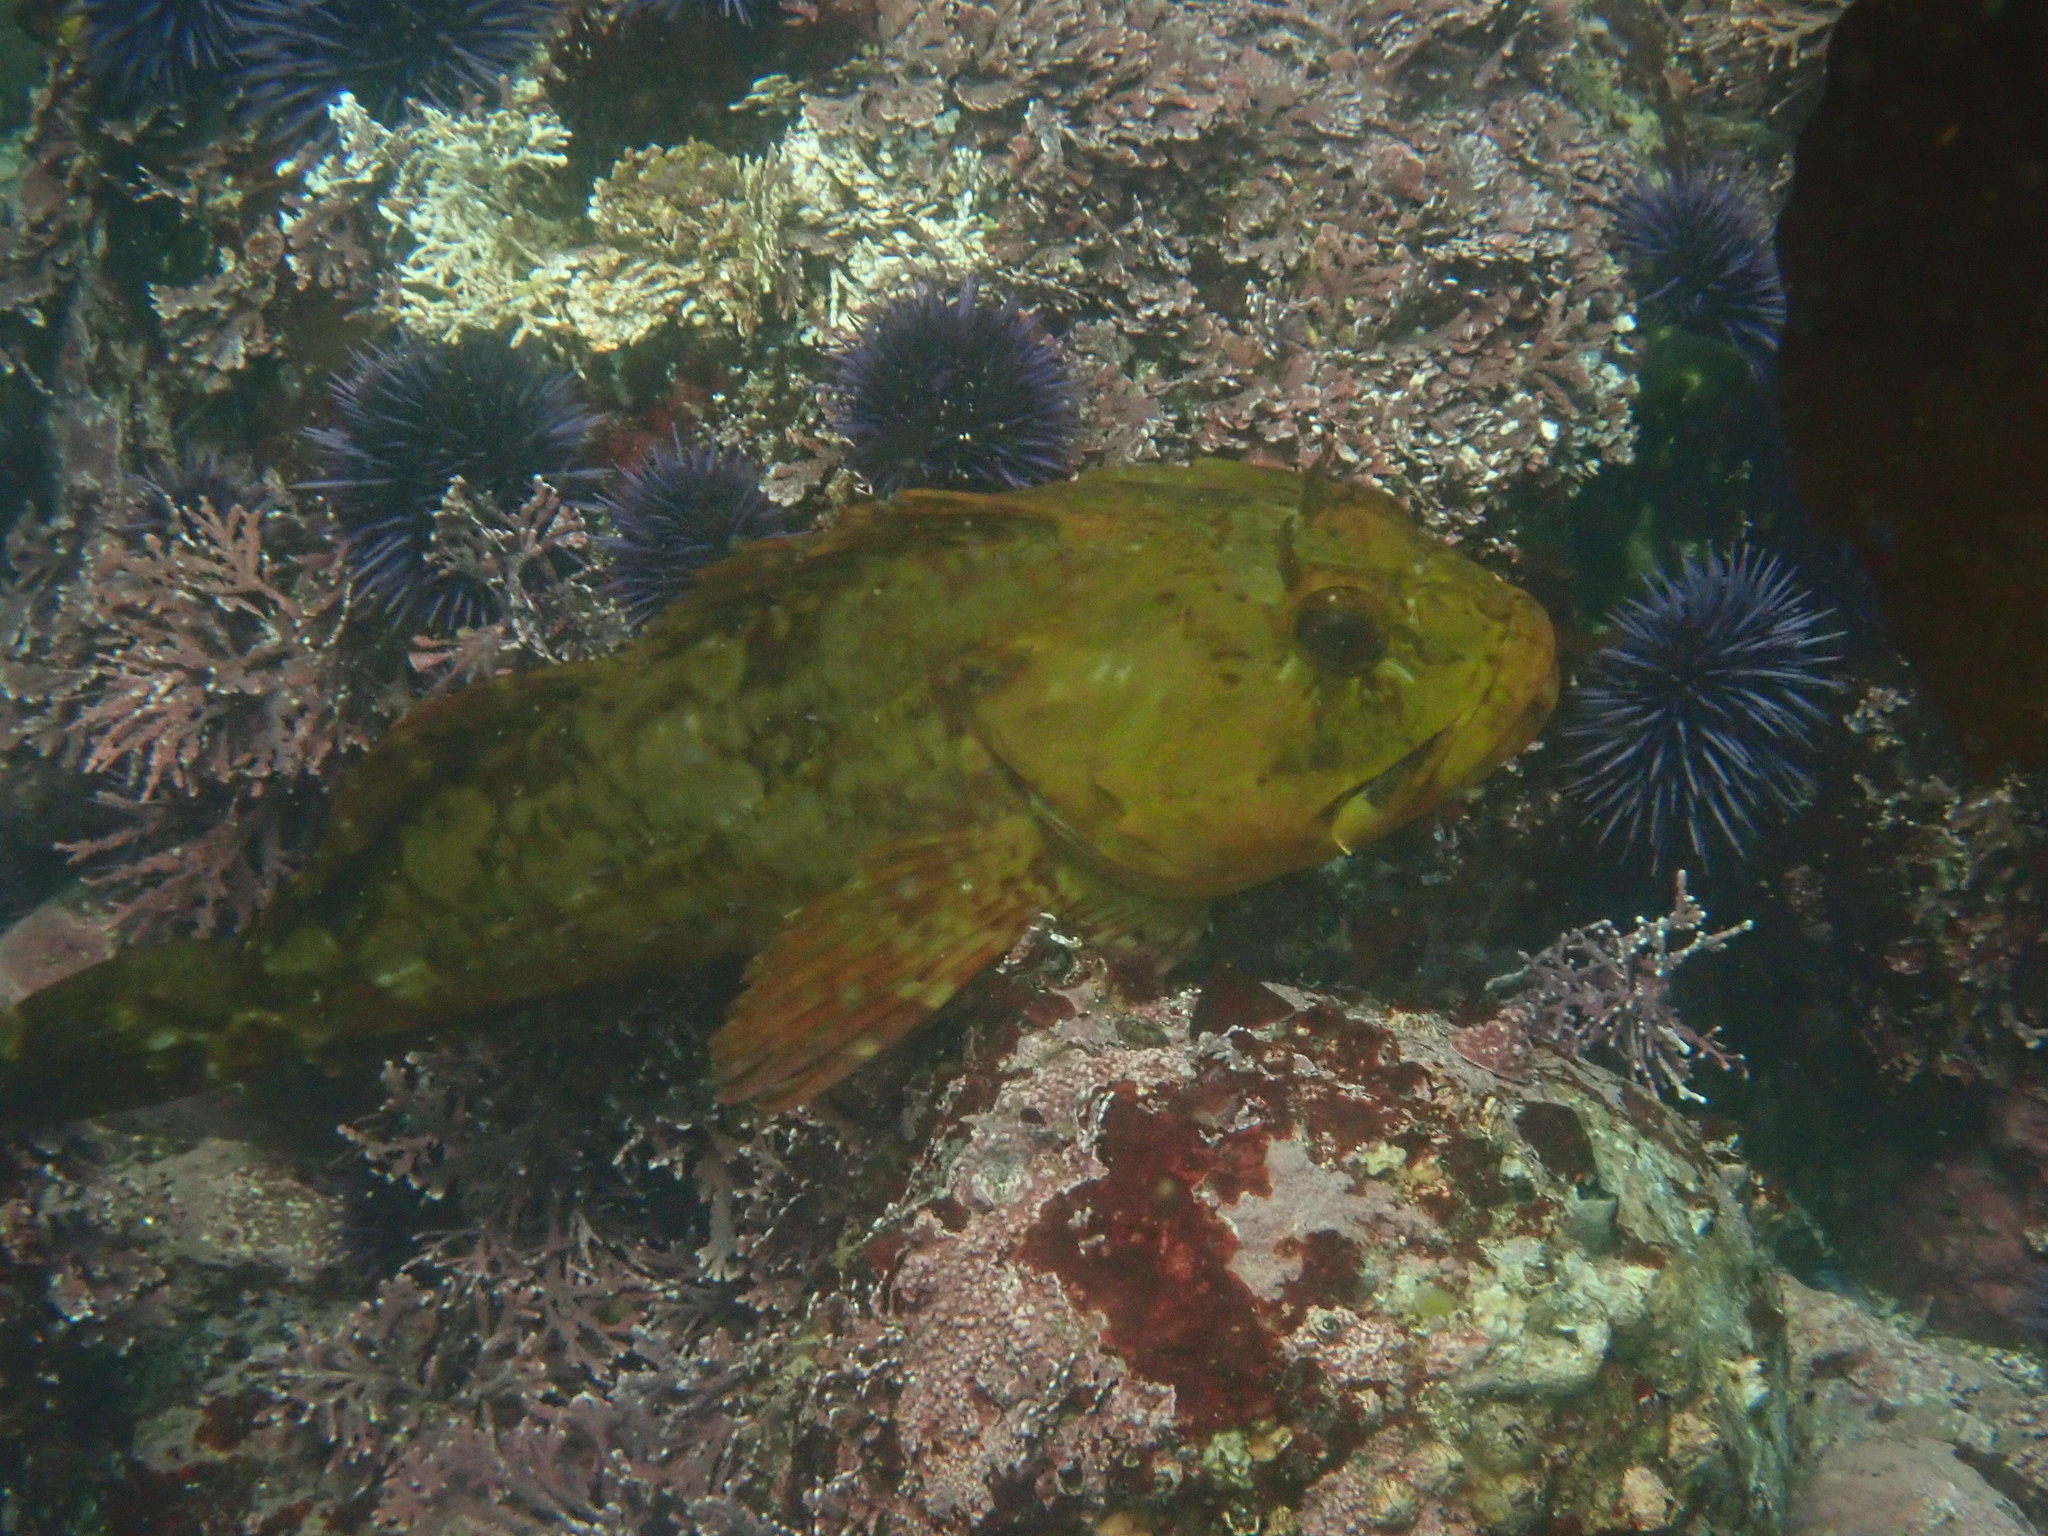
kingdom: Animalia
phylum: Chordata
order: Scorpaeniformes
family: Cottidae
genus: Scorpaenichthys
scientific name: Scorpaenichthys marmoratus
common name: Cabezon
